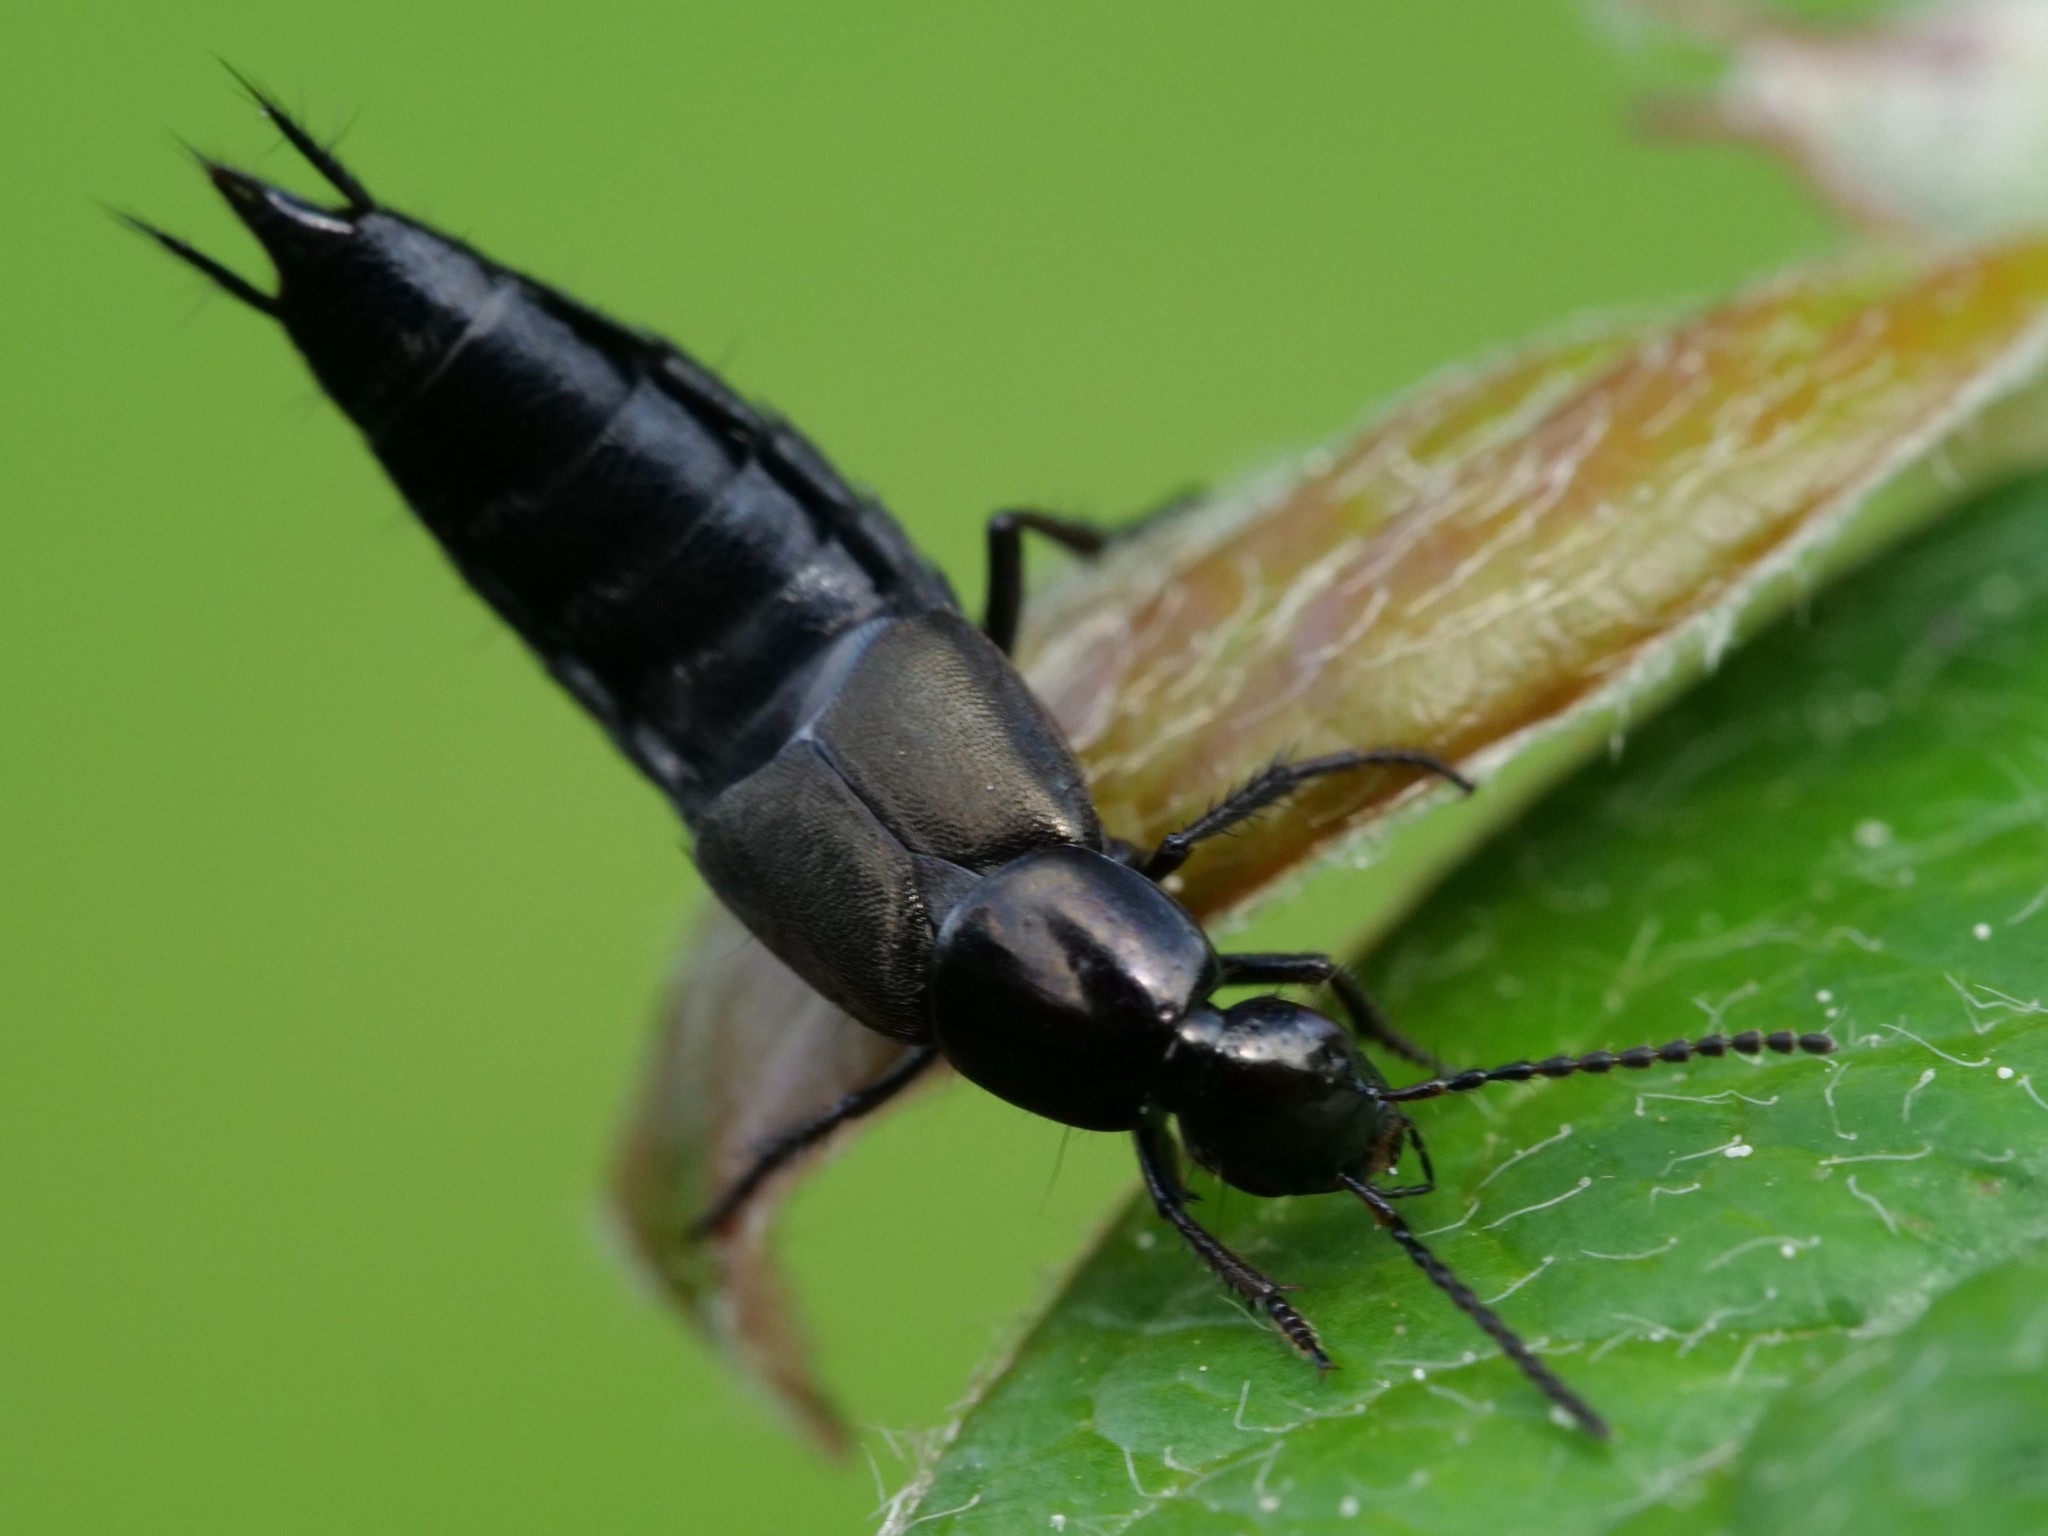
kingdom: Animalia
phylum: Arthropoda
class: Insecta
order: Coleoptera
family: Staphylinidae
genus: Philonthus
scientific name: Philonthus cognatus
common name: Staph beetle
